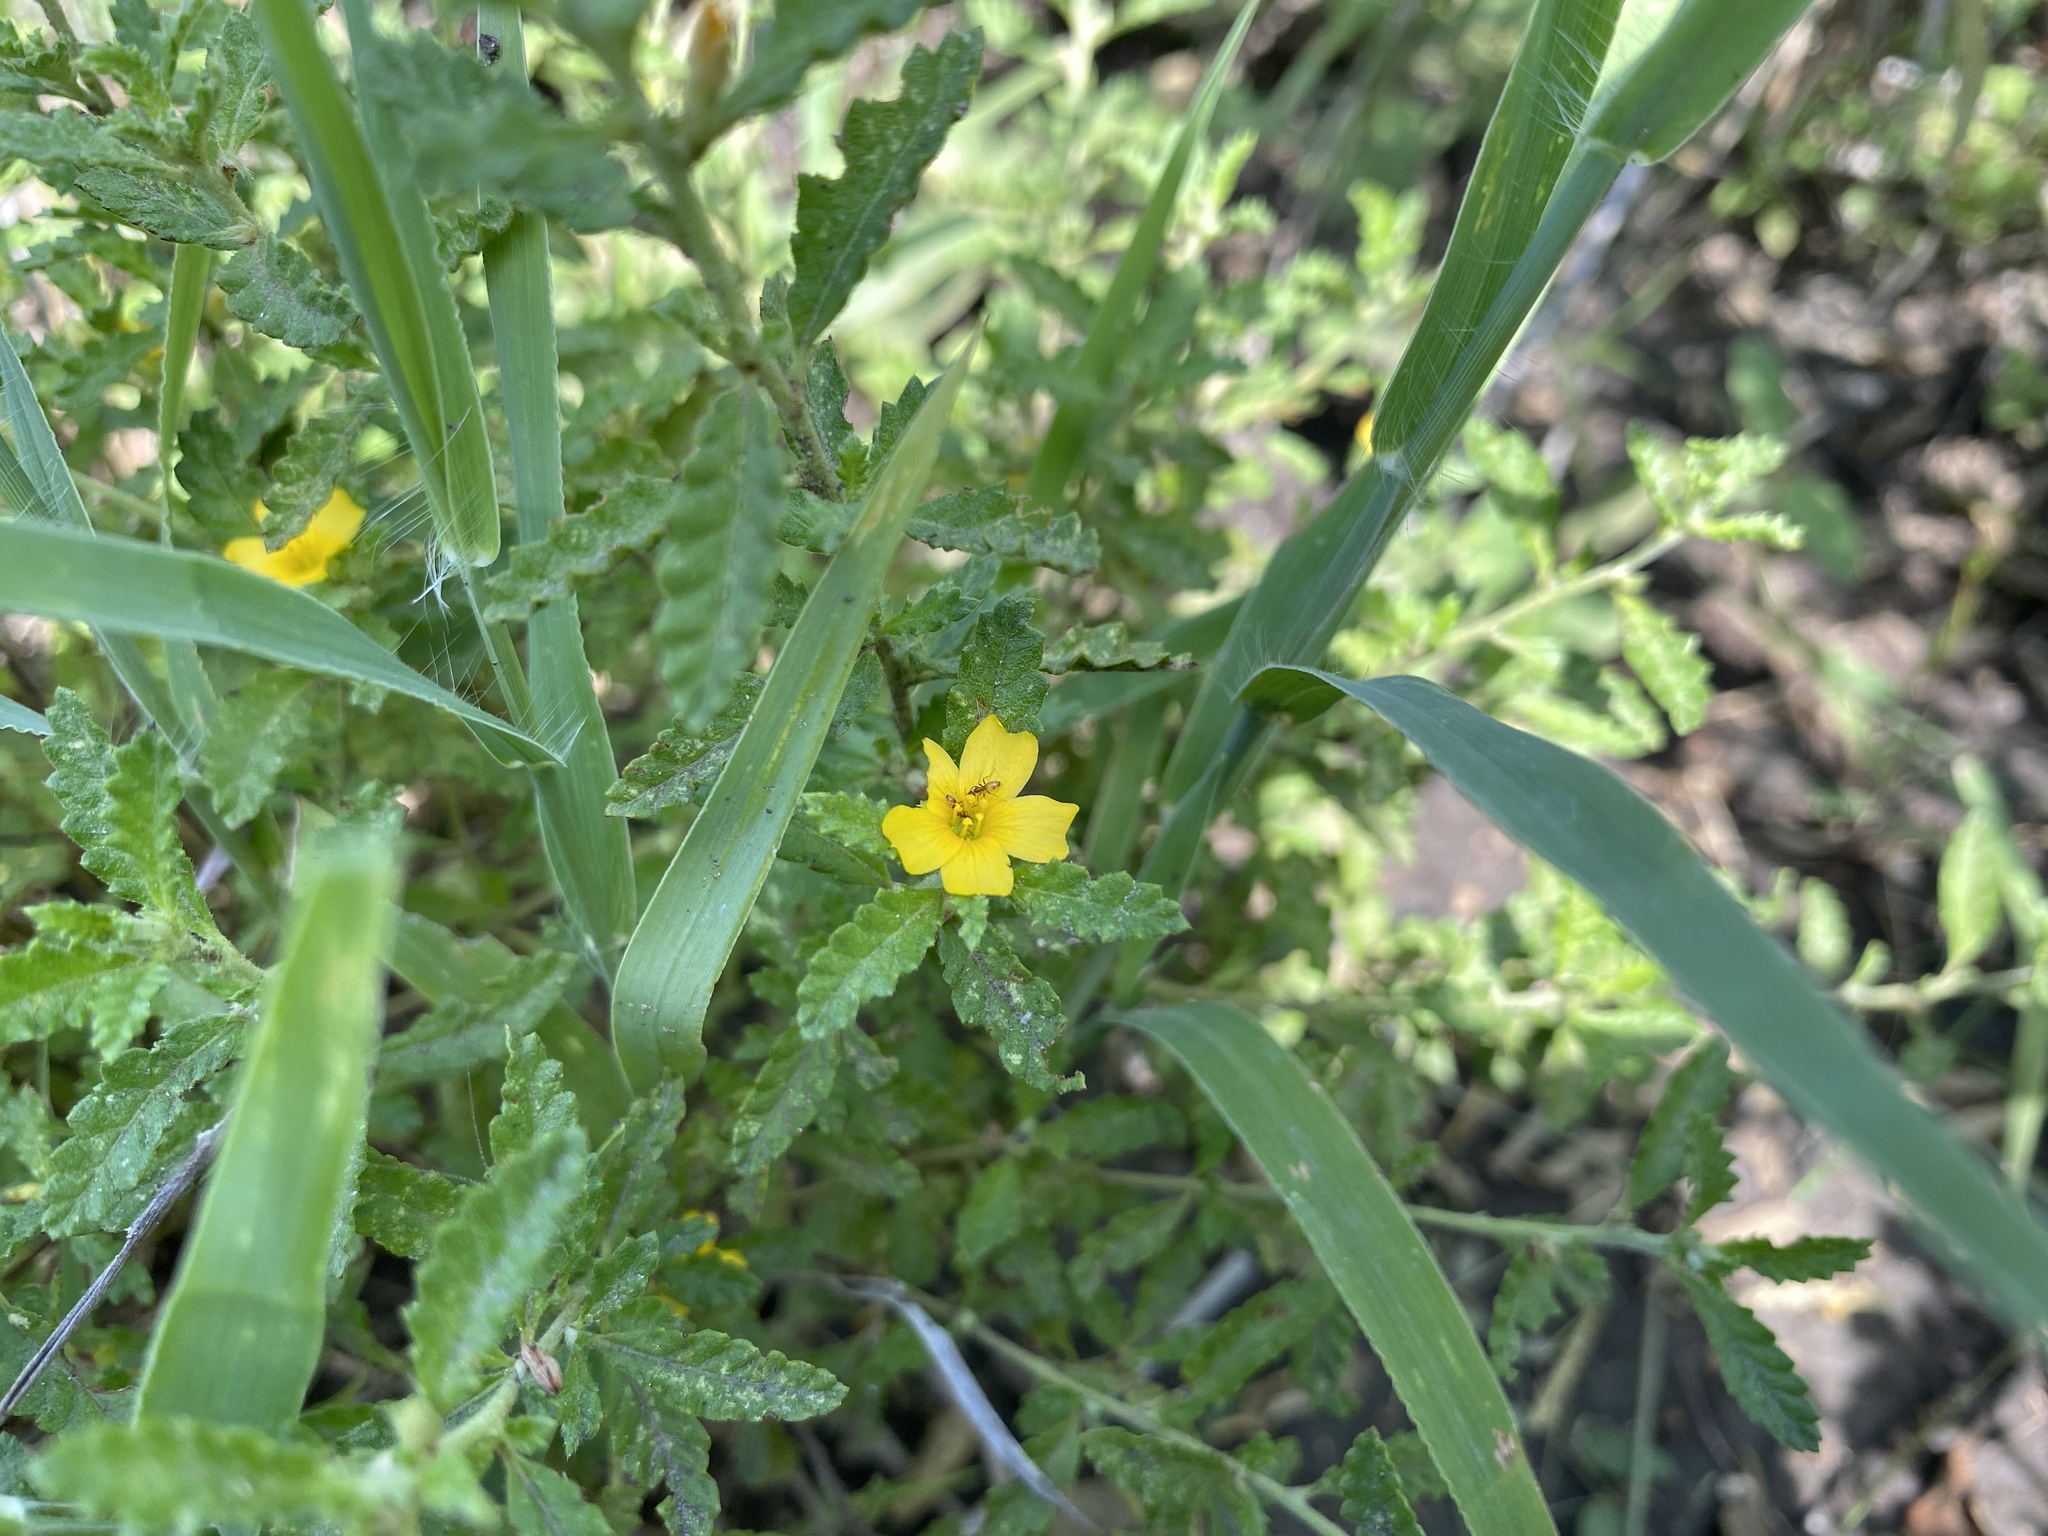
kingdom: Plantae
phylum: Tracheophyta
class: Magnoliopsida
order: Malpighiales
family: Turneraceae
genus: Turnera
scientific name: Turnera diffusa
